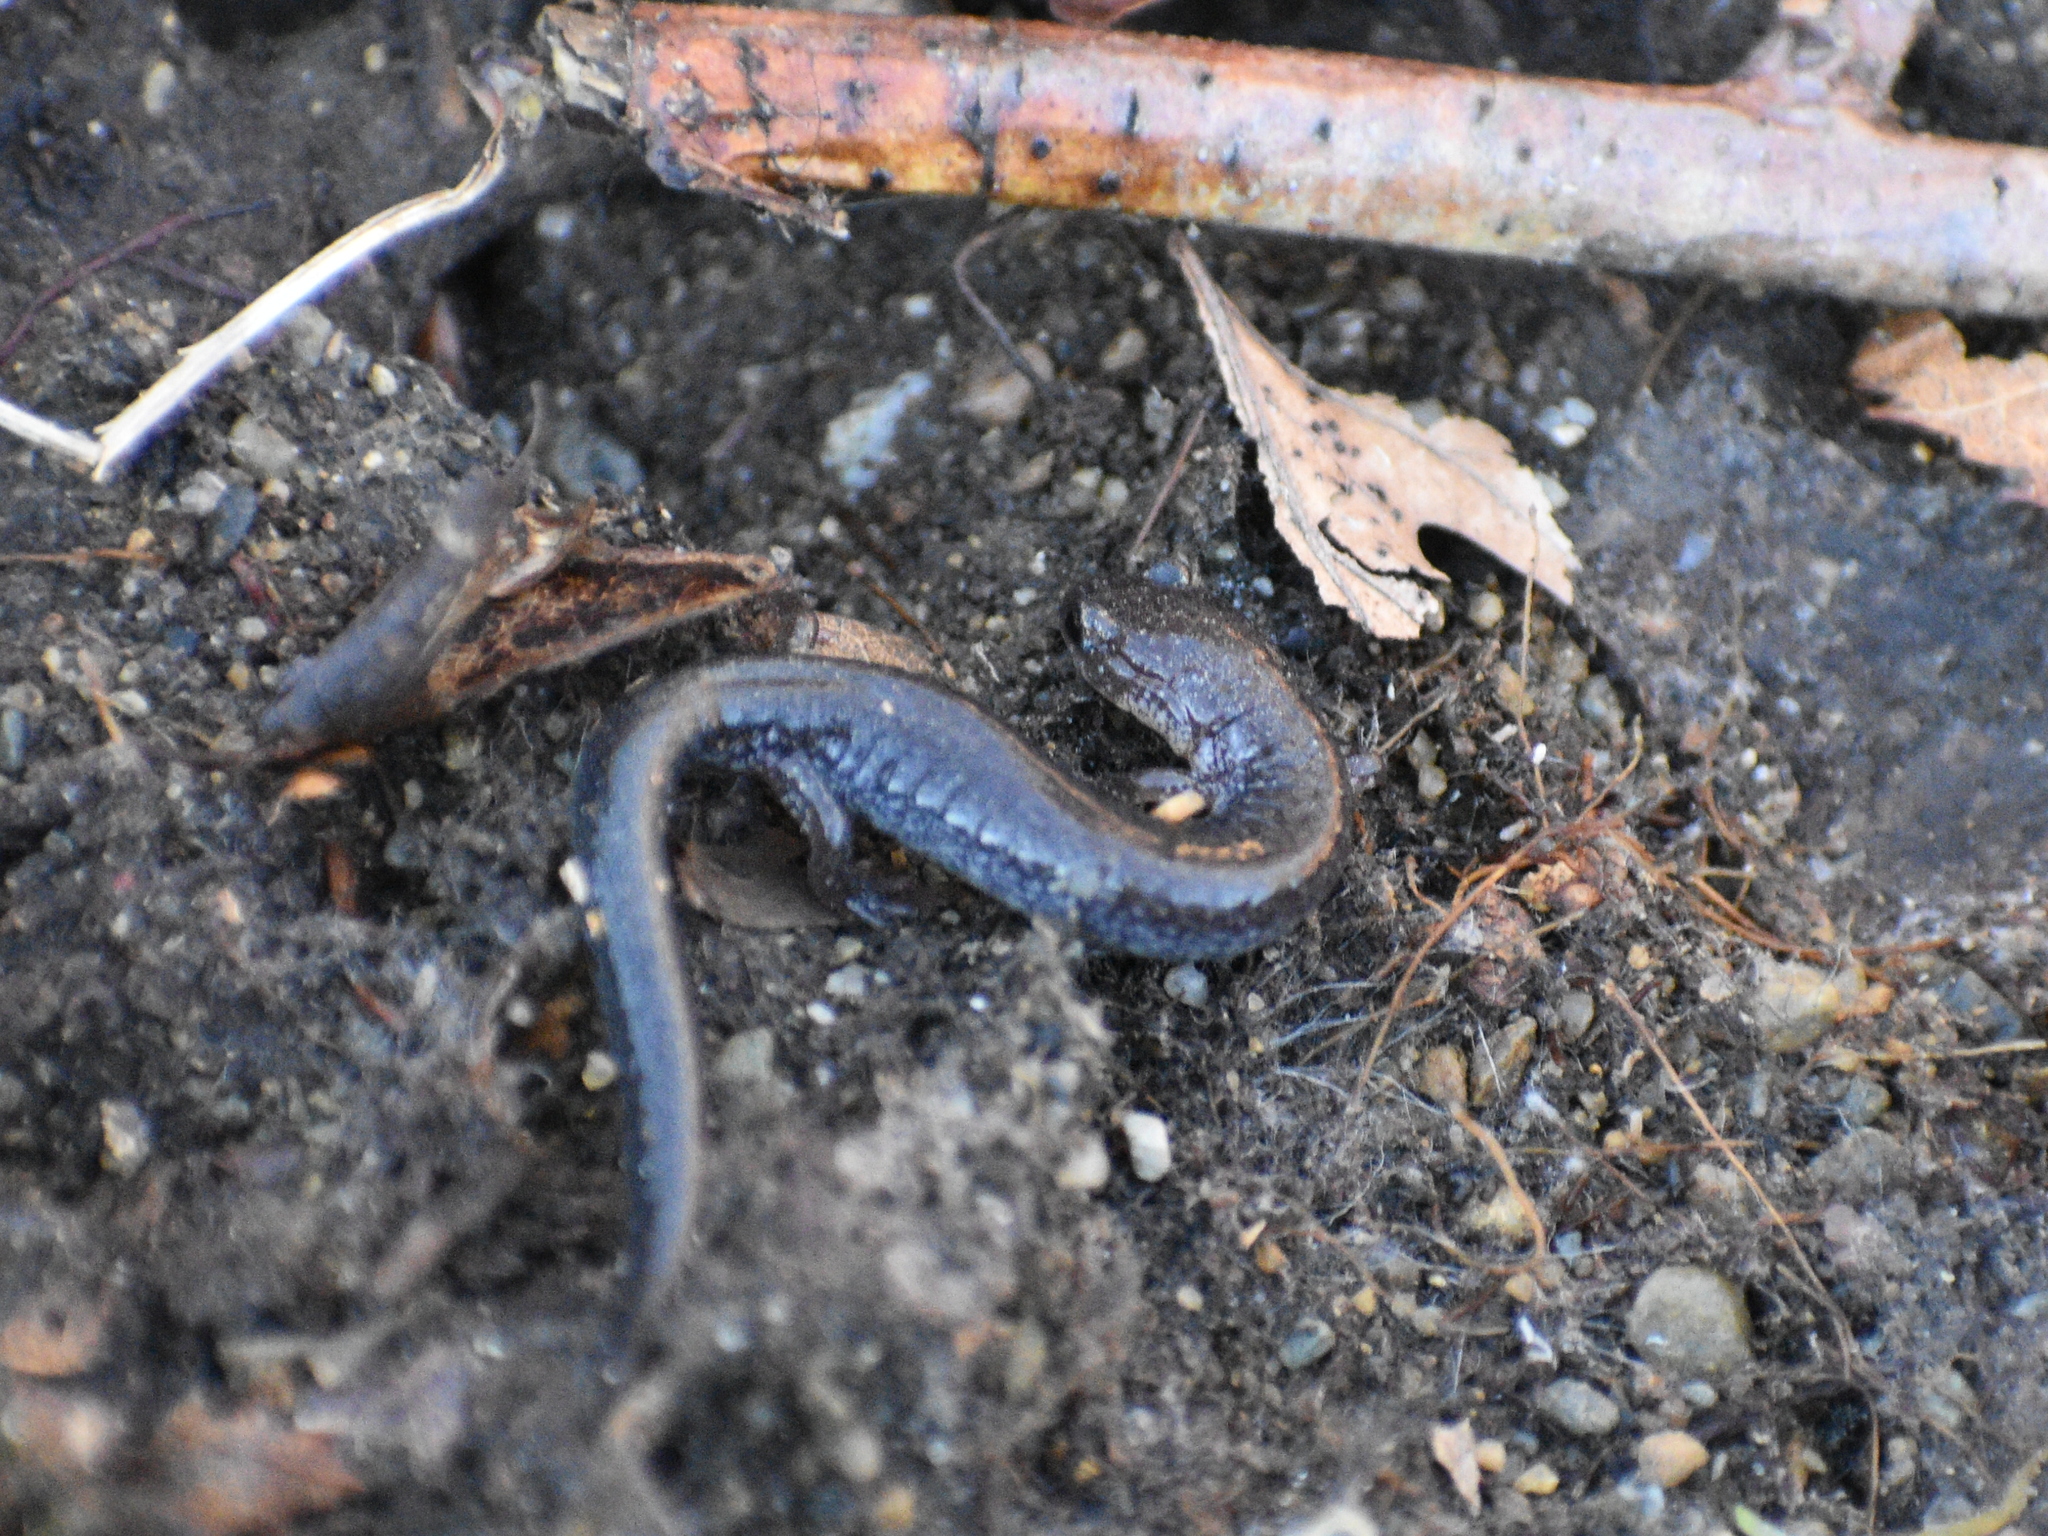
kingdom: Animalia
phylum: Chordata
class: Amphibia
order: Caudata
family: Plethodontidae
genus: Plethodon
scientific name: Plethodon cinereus
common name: Redback salamander
